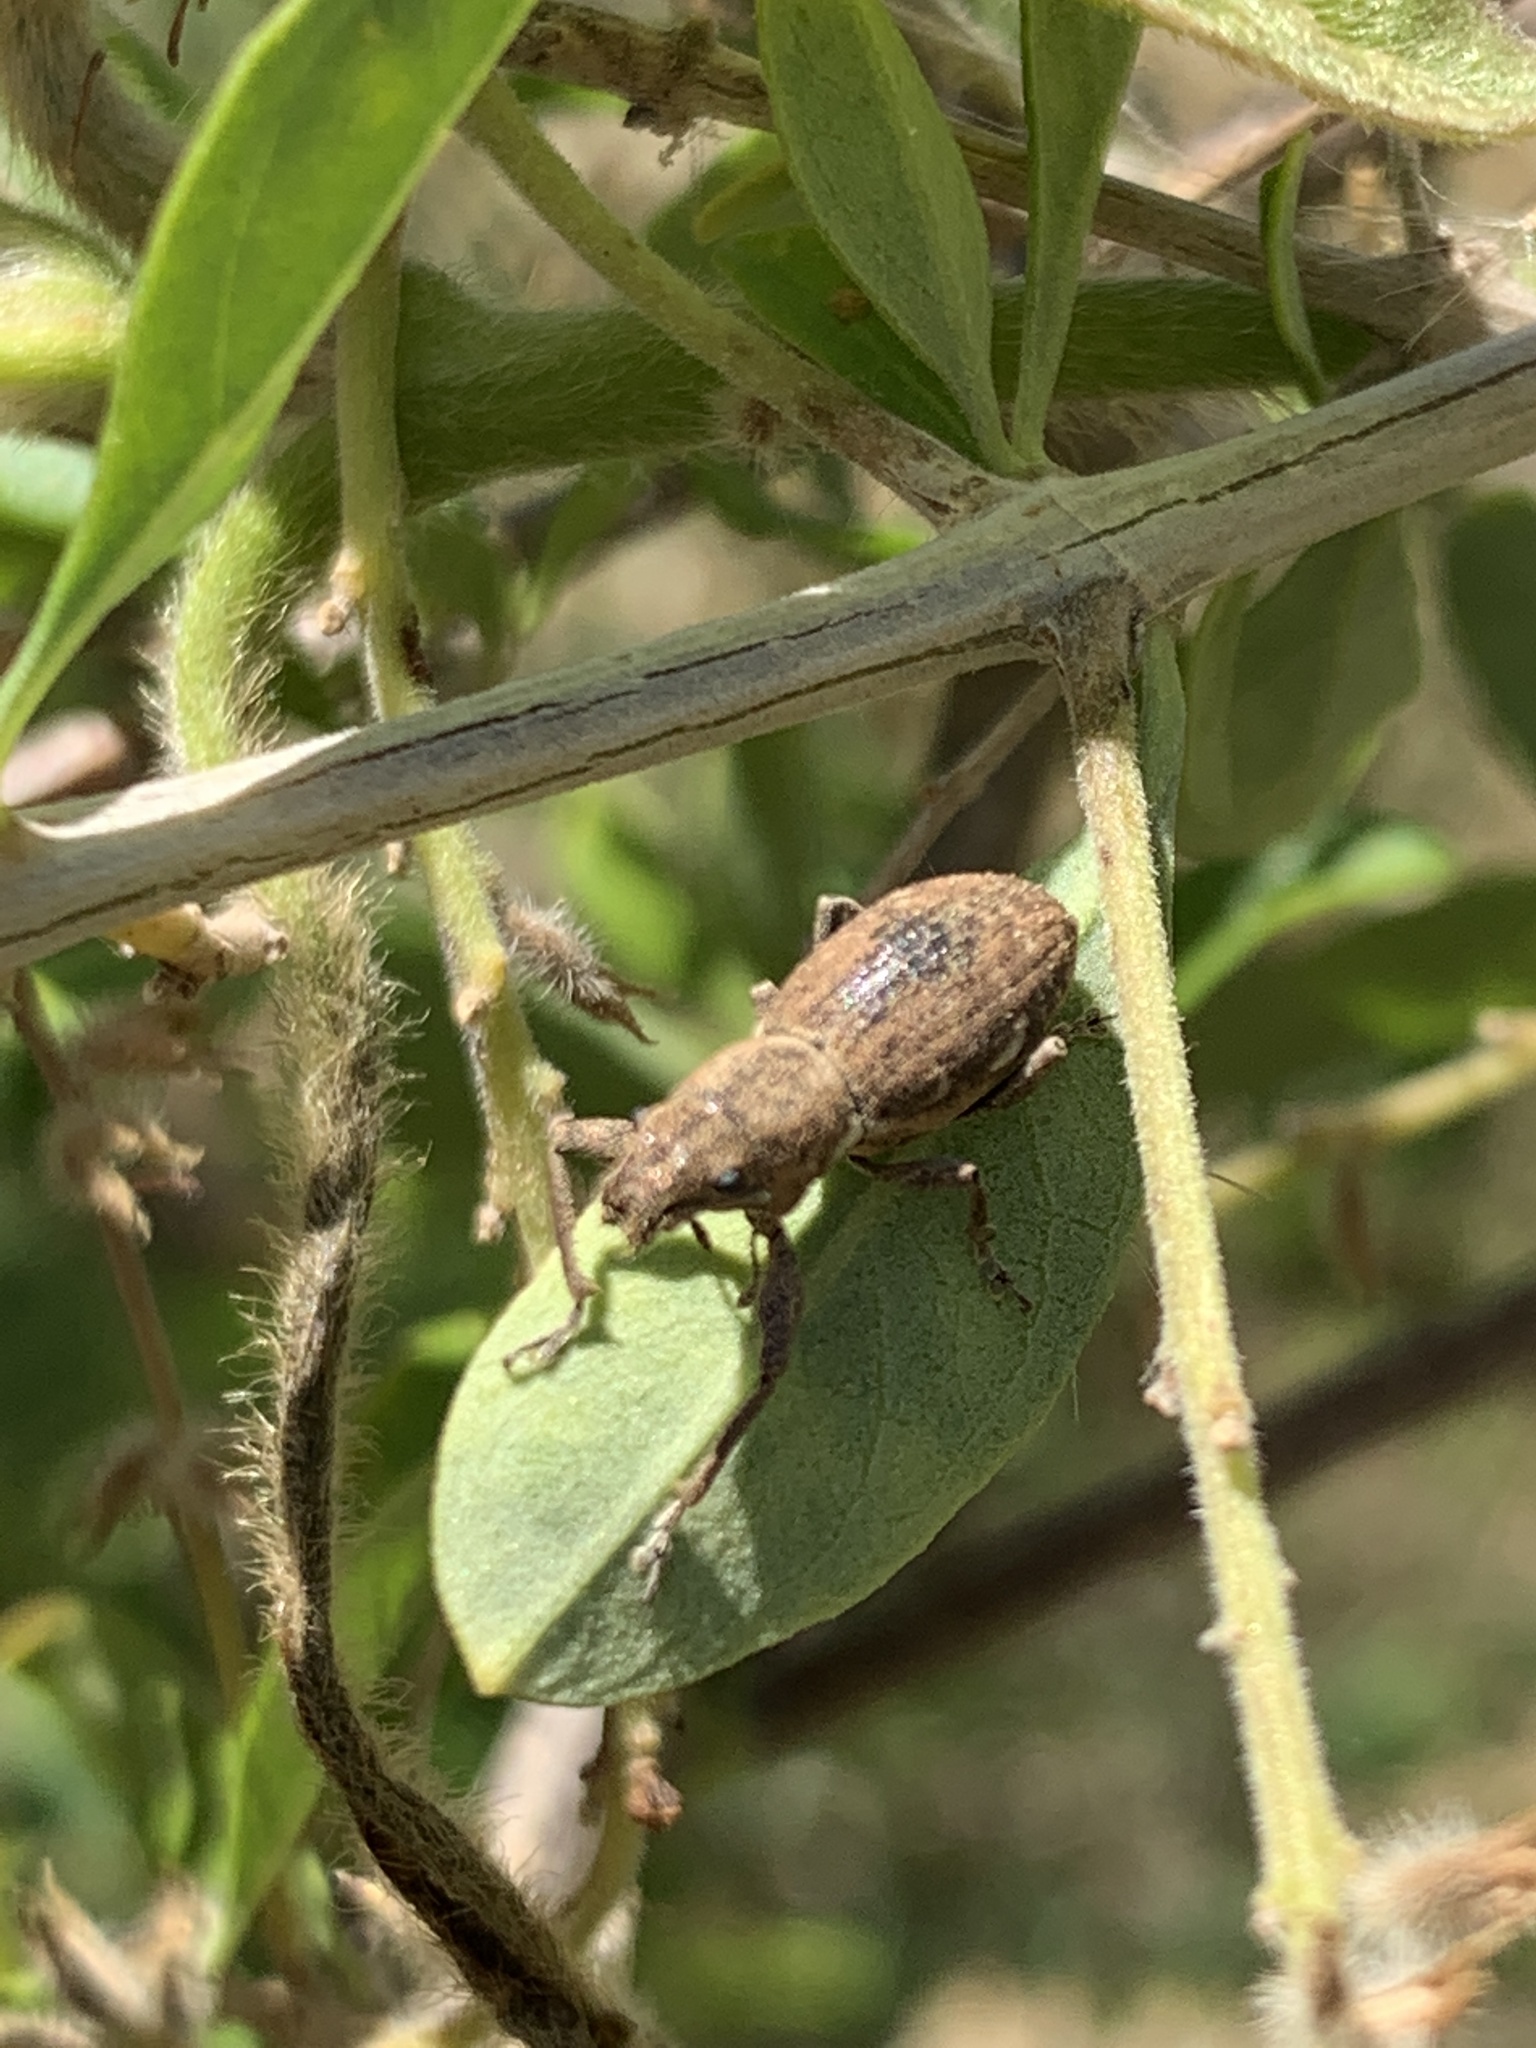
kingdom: Animalia
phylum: Arthropoda
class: Insecta
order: Coleoptera
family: Curculionidae
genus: Naupactus
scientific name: Naupactus cervinus
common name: Fuller rose beetle
